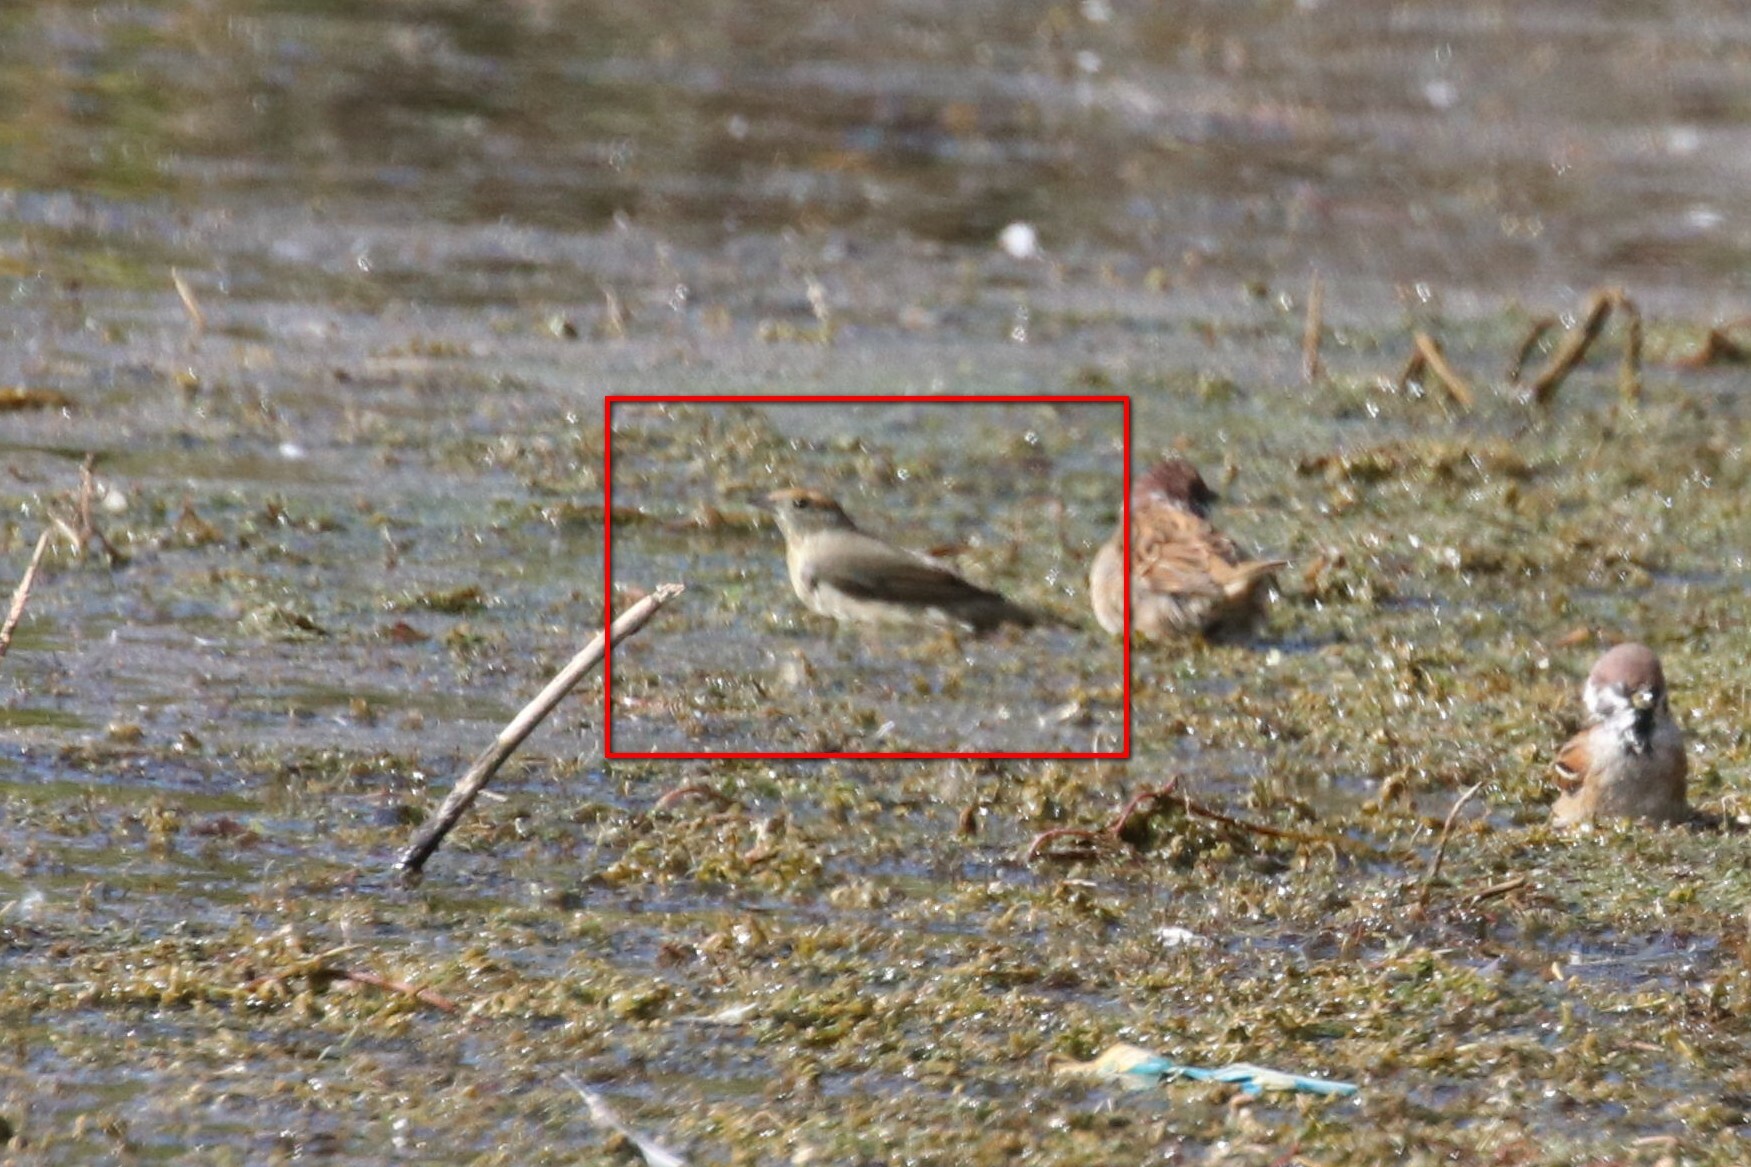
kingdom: Animalia
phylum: Chordata
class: Aves
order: Passeriformes
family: Sylviidae
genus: Sylvia
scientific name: Sylvia atricapilla
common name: Eurasian blackcap
